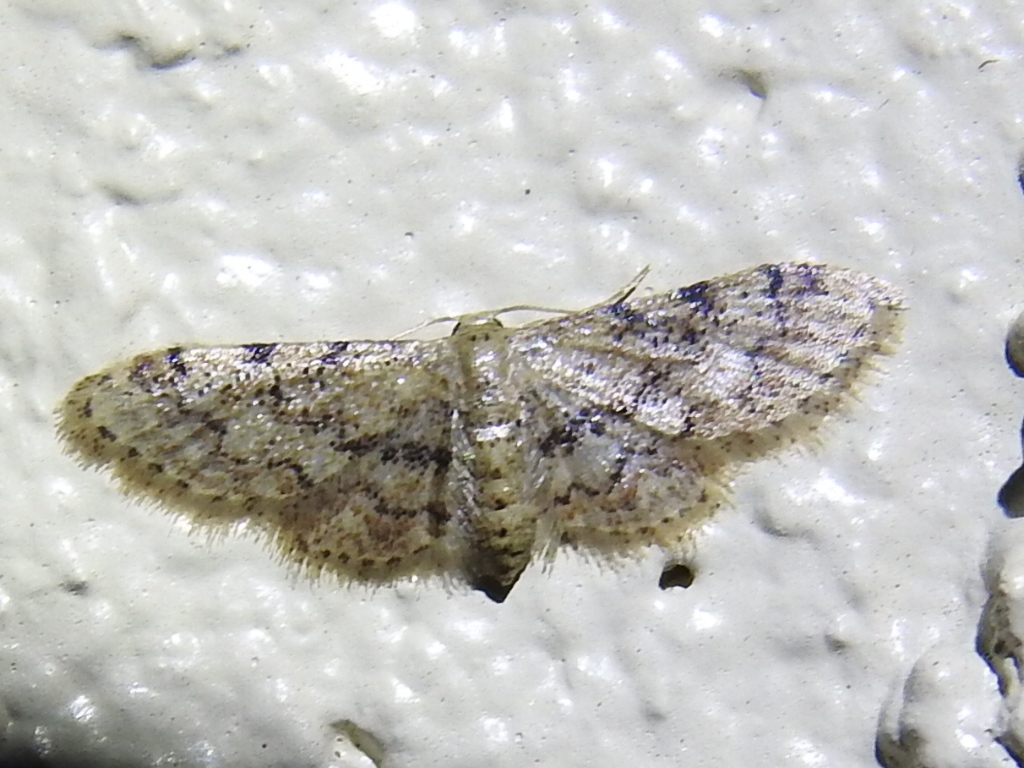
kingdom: Animalia
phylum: Arthropoda
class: Insecta
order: Lepidoptera
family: Geometridae
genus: Idaea
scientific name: Idaea pervertipennis
